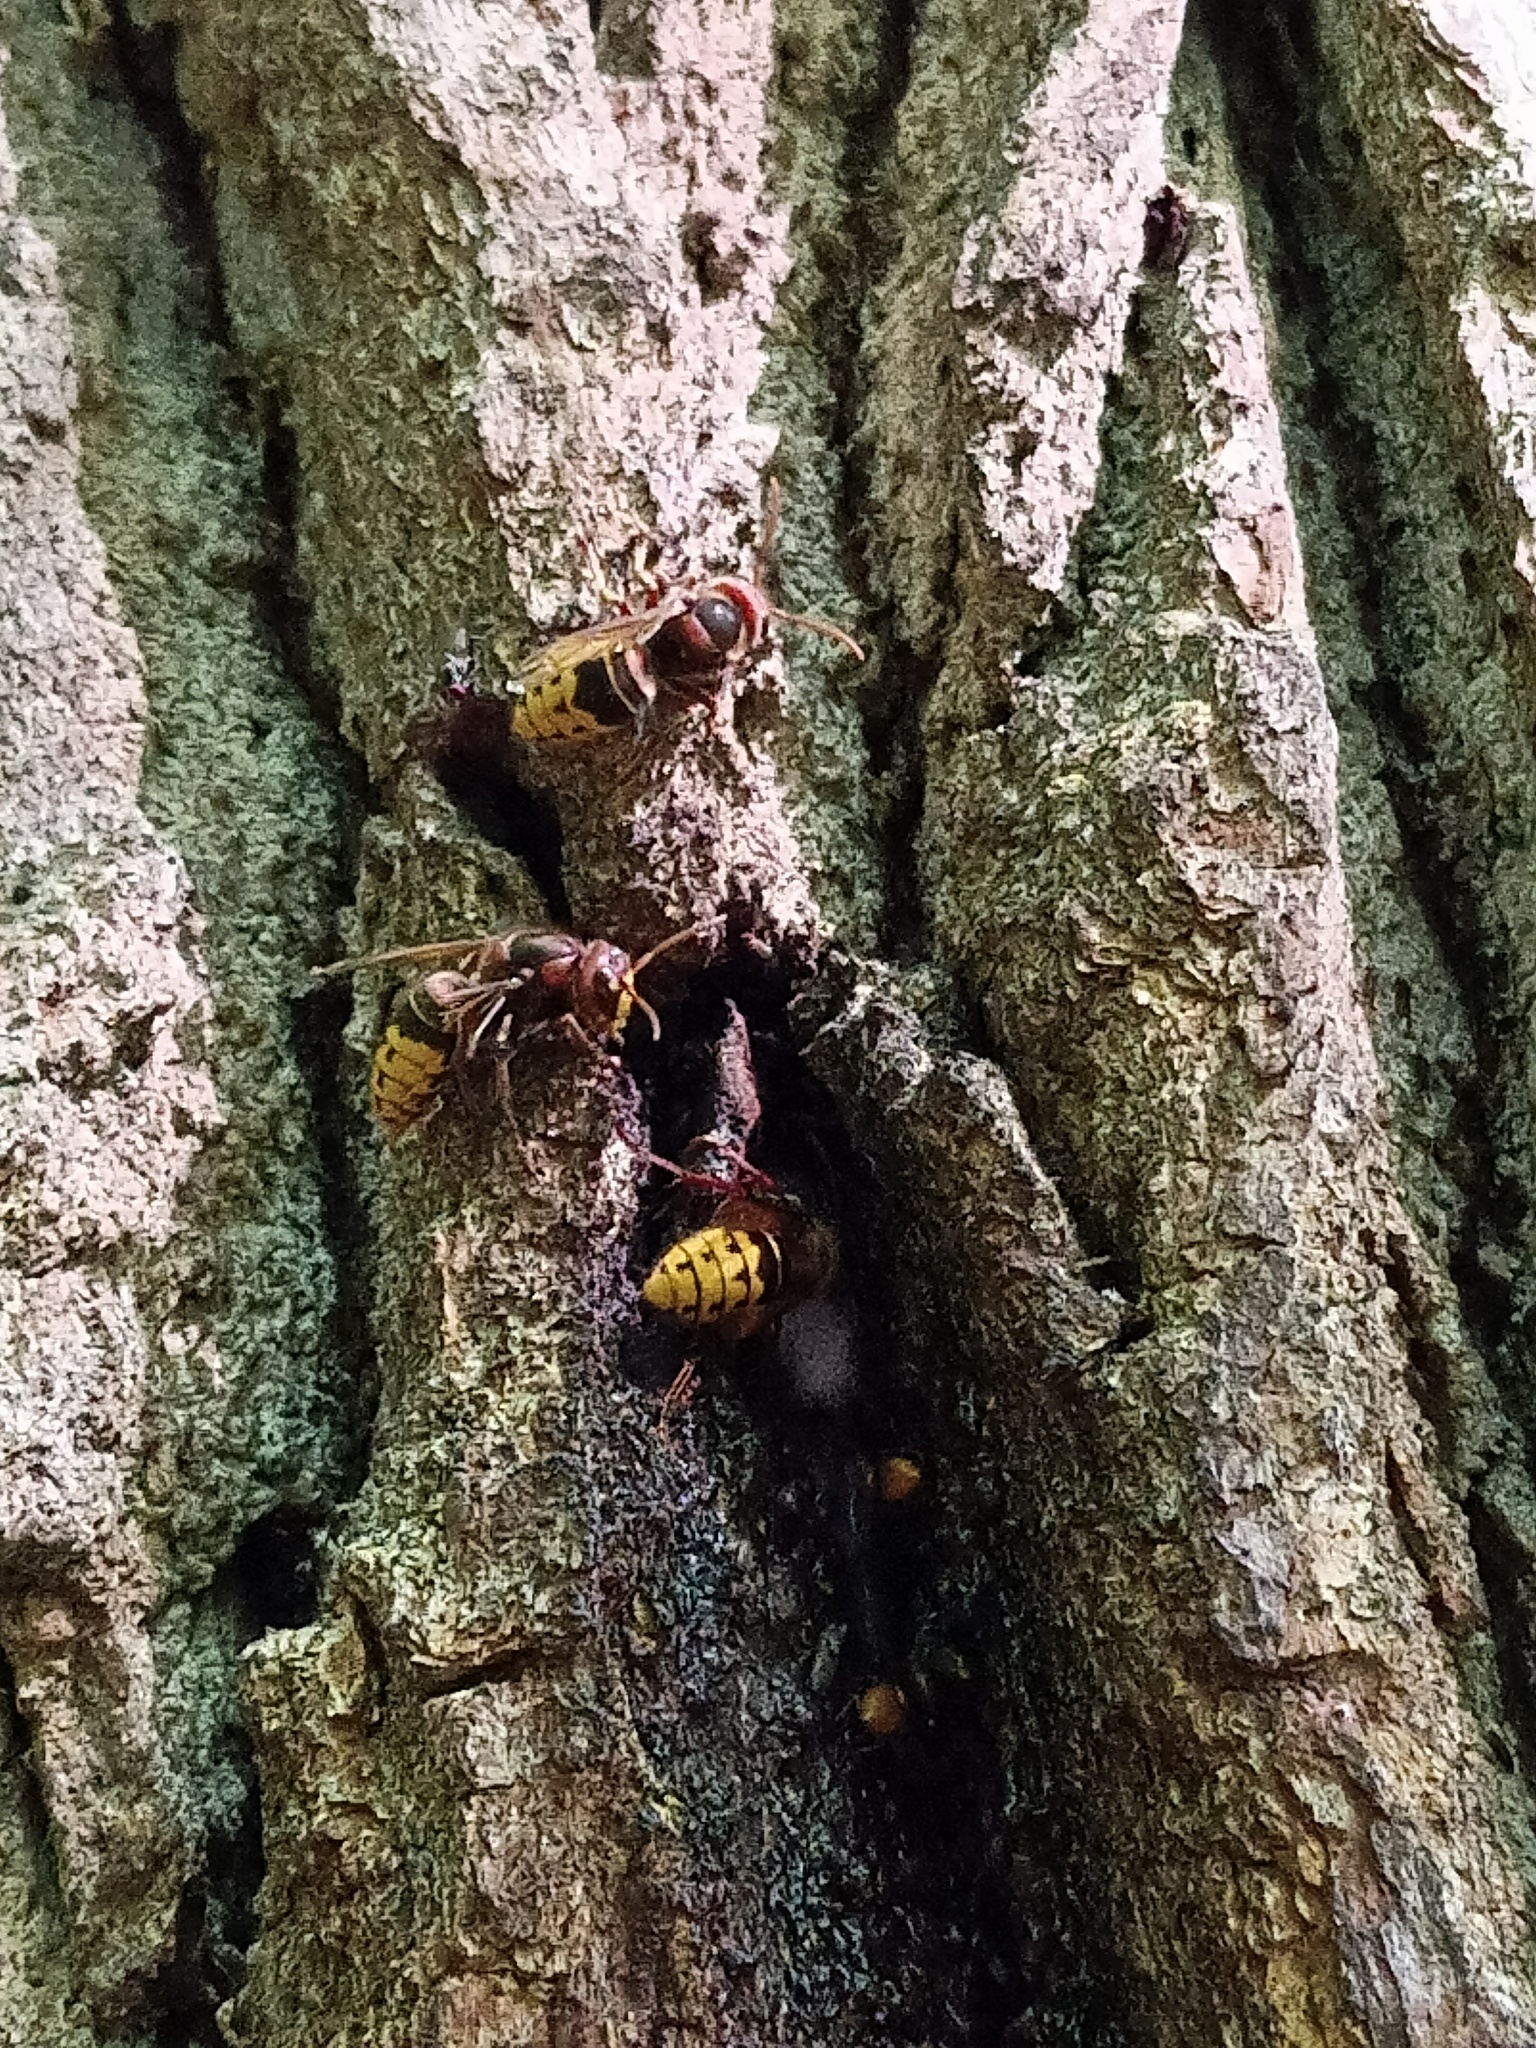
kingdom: Animalia
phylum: Arthropoda
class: Insecta
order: Hymenoptera
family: Vespidae
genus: Vespa
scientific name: Vespa crabro
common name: Hornet
